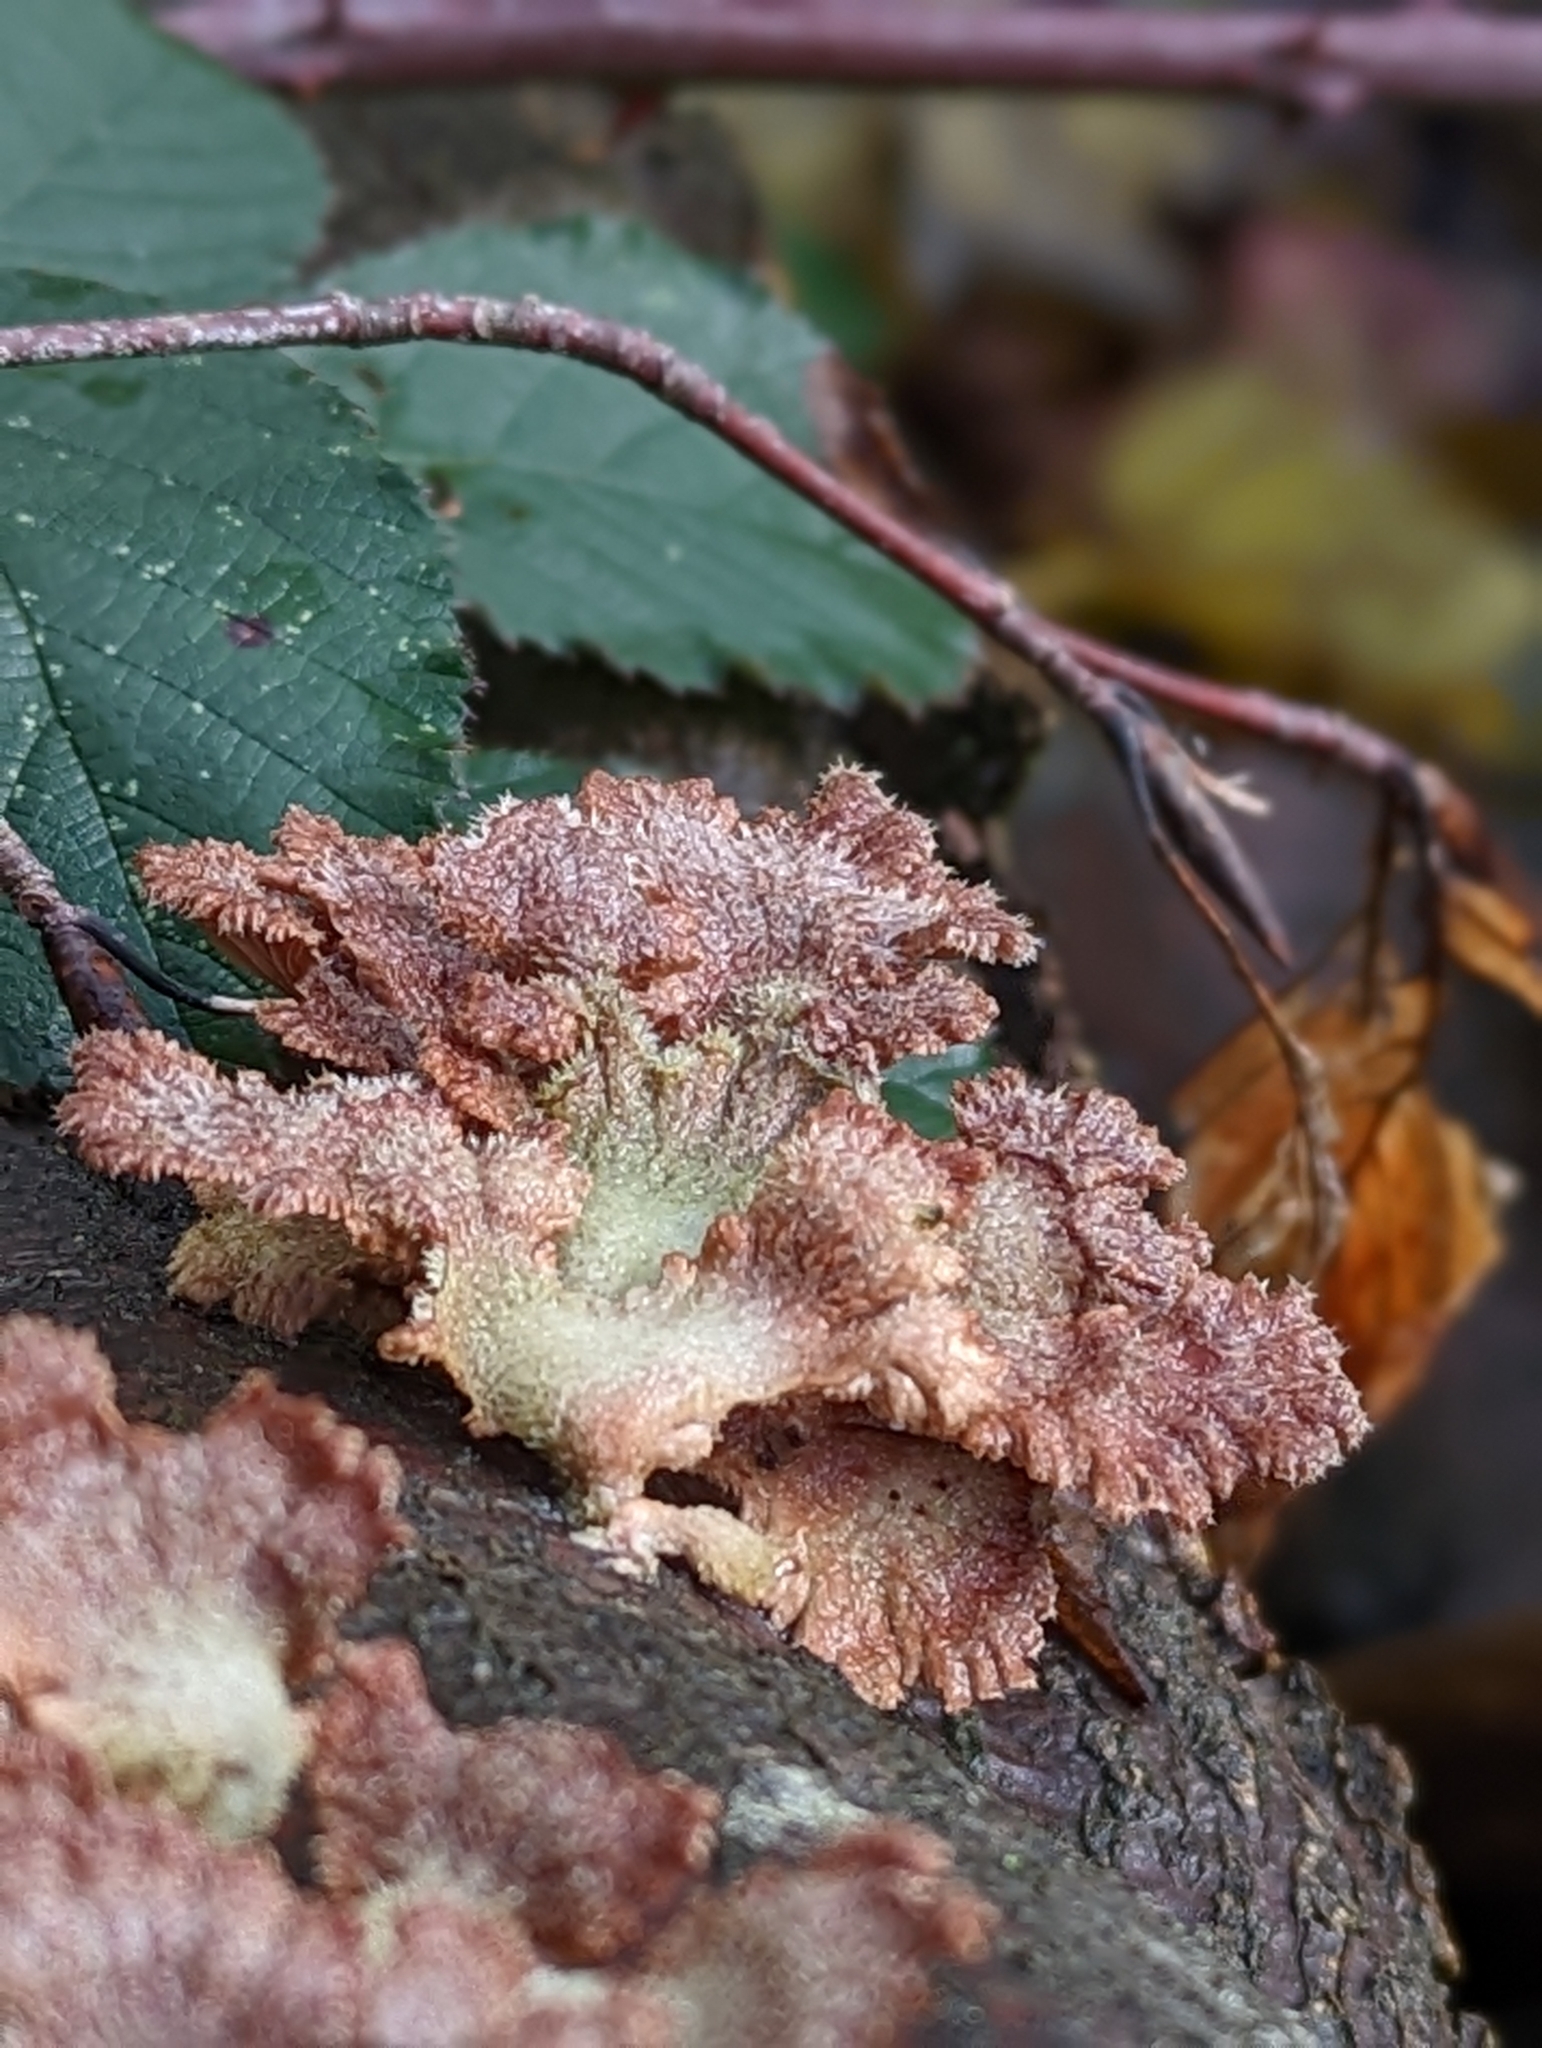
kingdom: Fungi
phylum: Basidiomycota
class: Agaricomycetes
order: Agaricales
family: Schizophyllaceae
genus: Schizophyllum
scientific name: Schizophyllum commune
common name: Common porecrust
